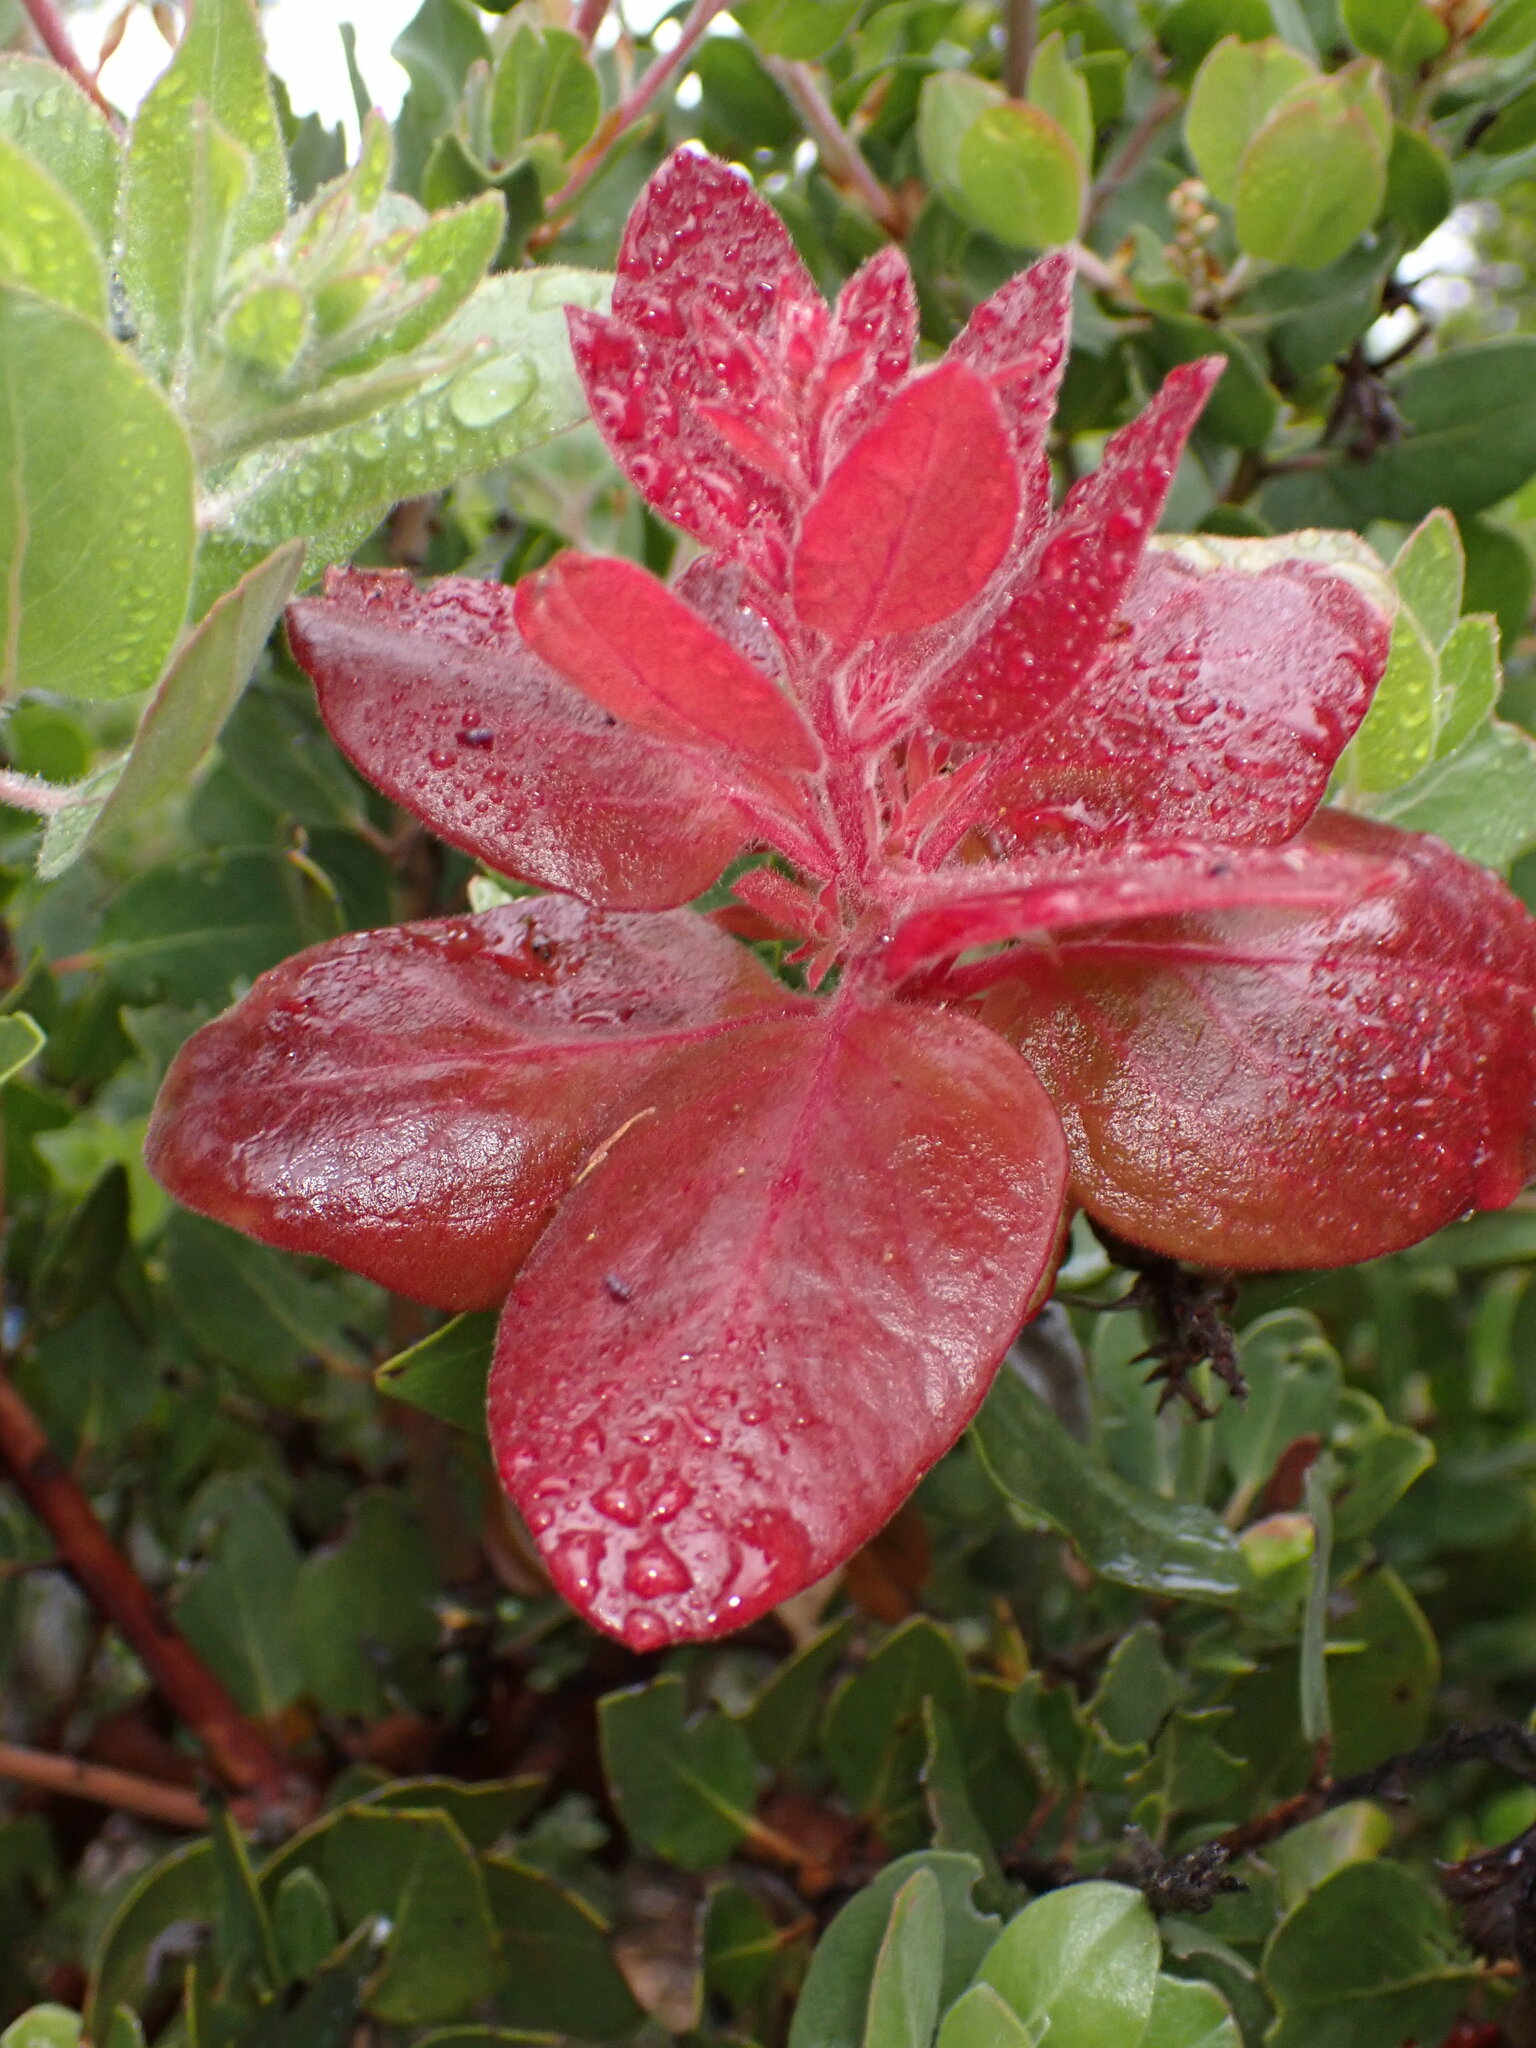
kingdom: Fungi
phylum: Basidiomycota
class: Exobasidiomycetes
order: Exobasidiales
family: Exobasidiaceae
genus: Exobasidium
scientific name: Exobasidium arctostaphyli
